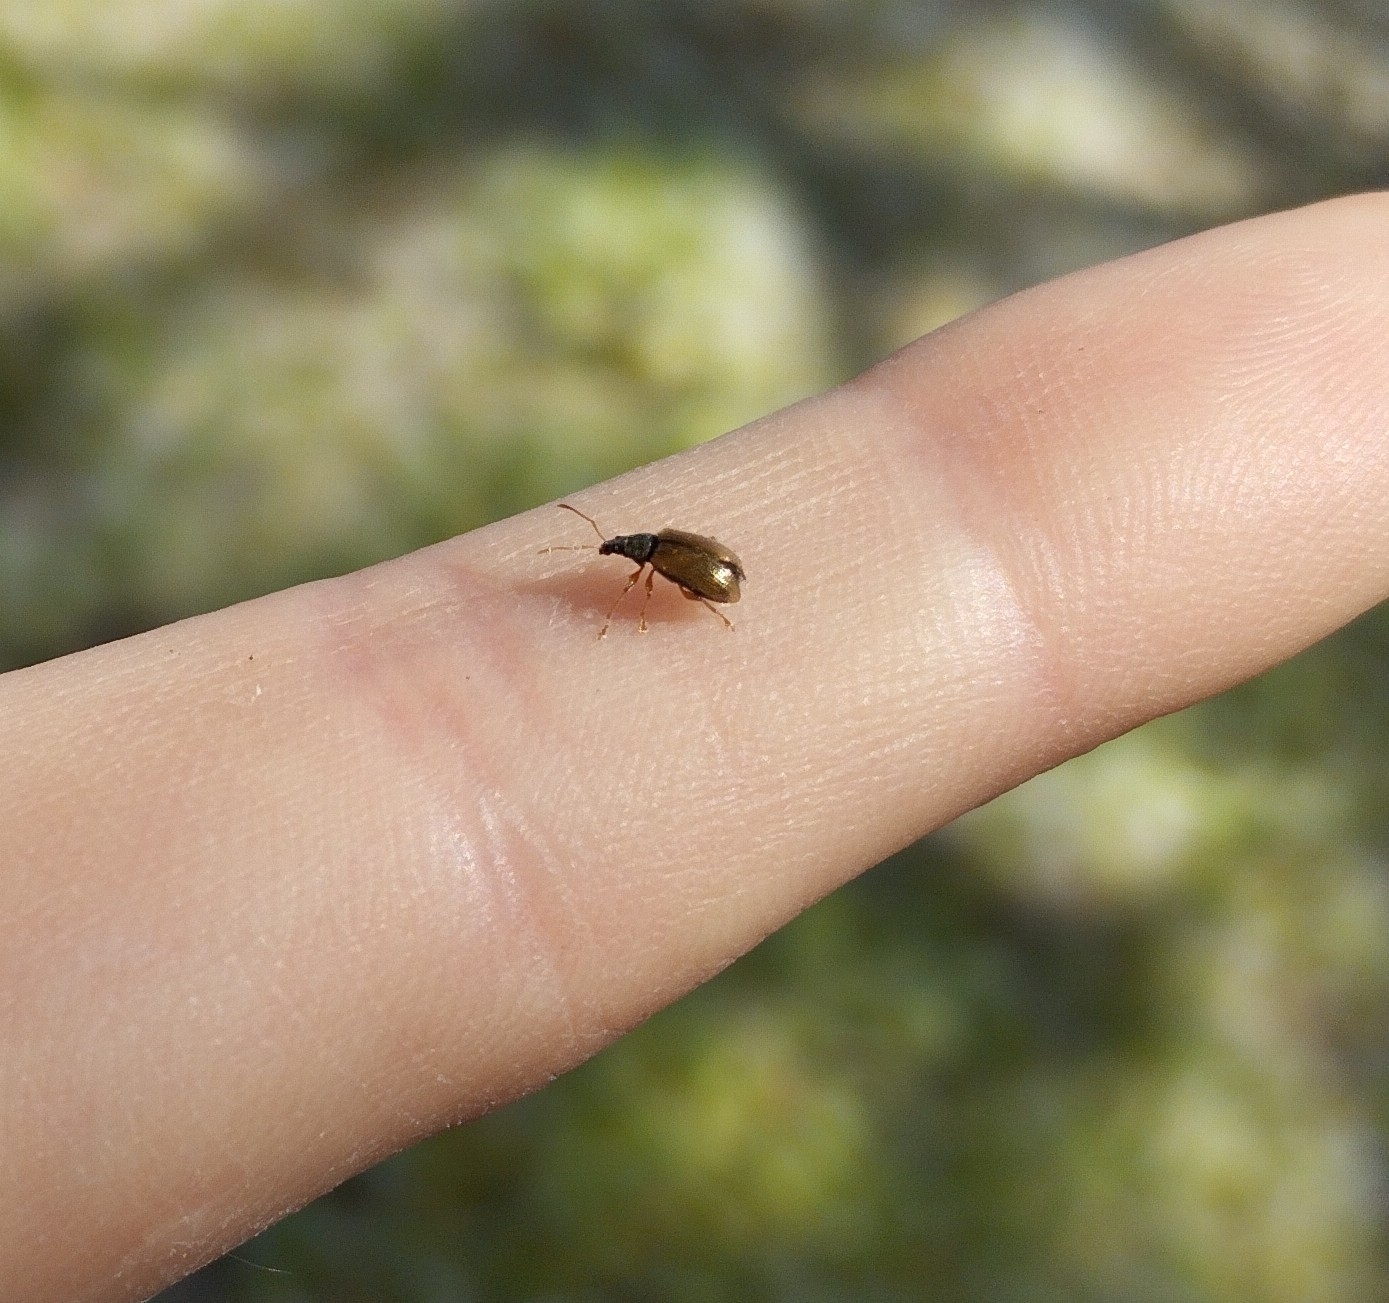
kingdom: Animalia
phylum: Arthropoda
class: Insecta
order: Coleoptera
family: Curculionidae
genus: Phyllobius
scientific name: Phyllobius oblongus
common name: Brown leaf weevil
